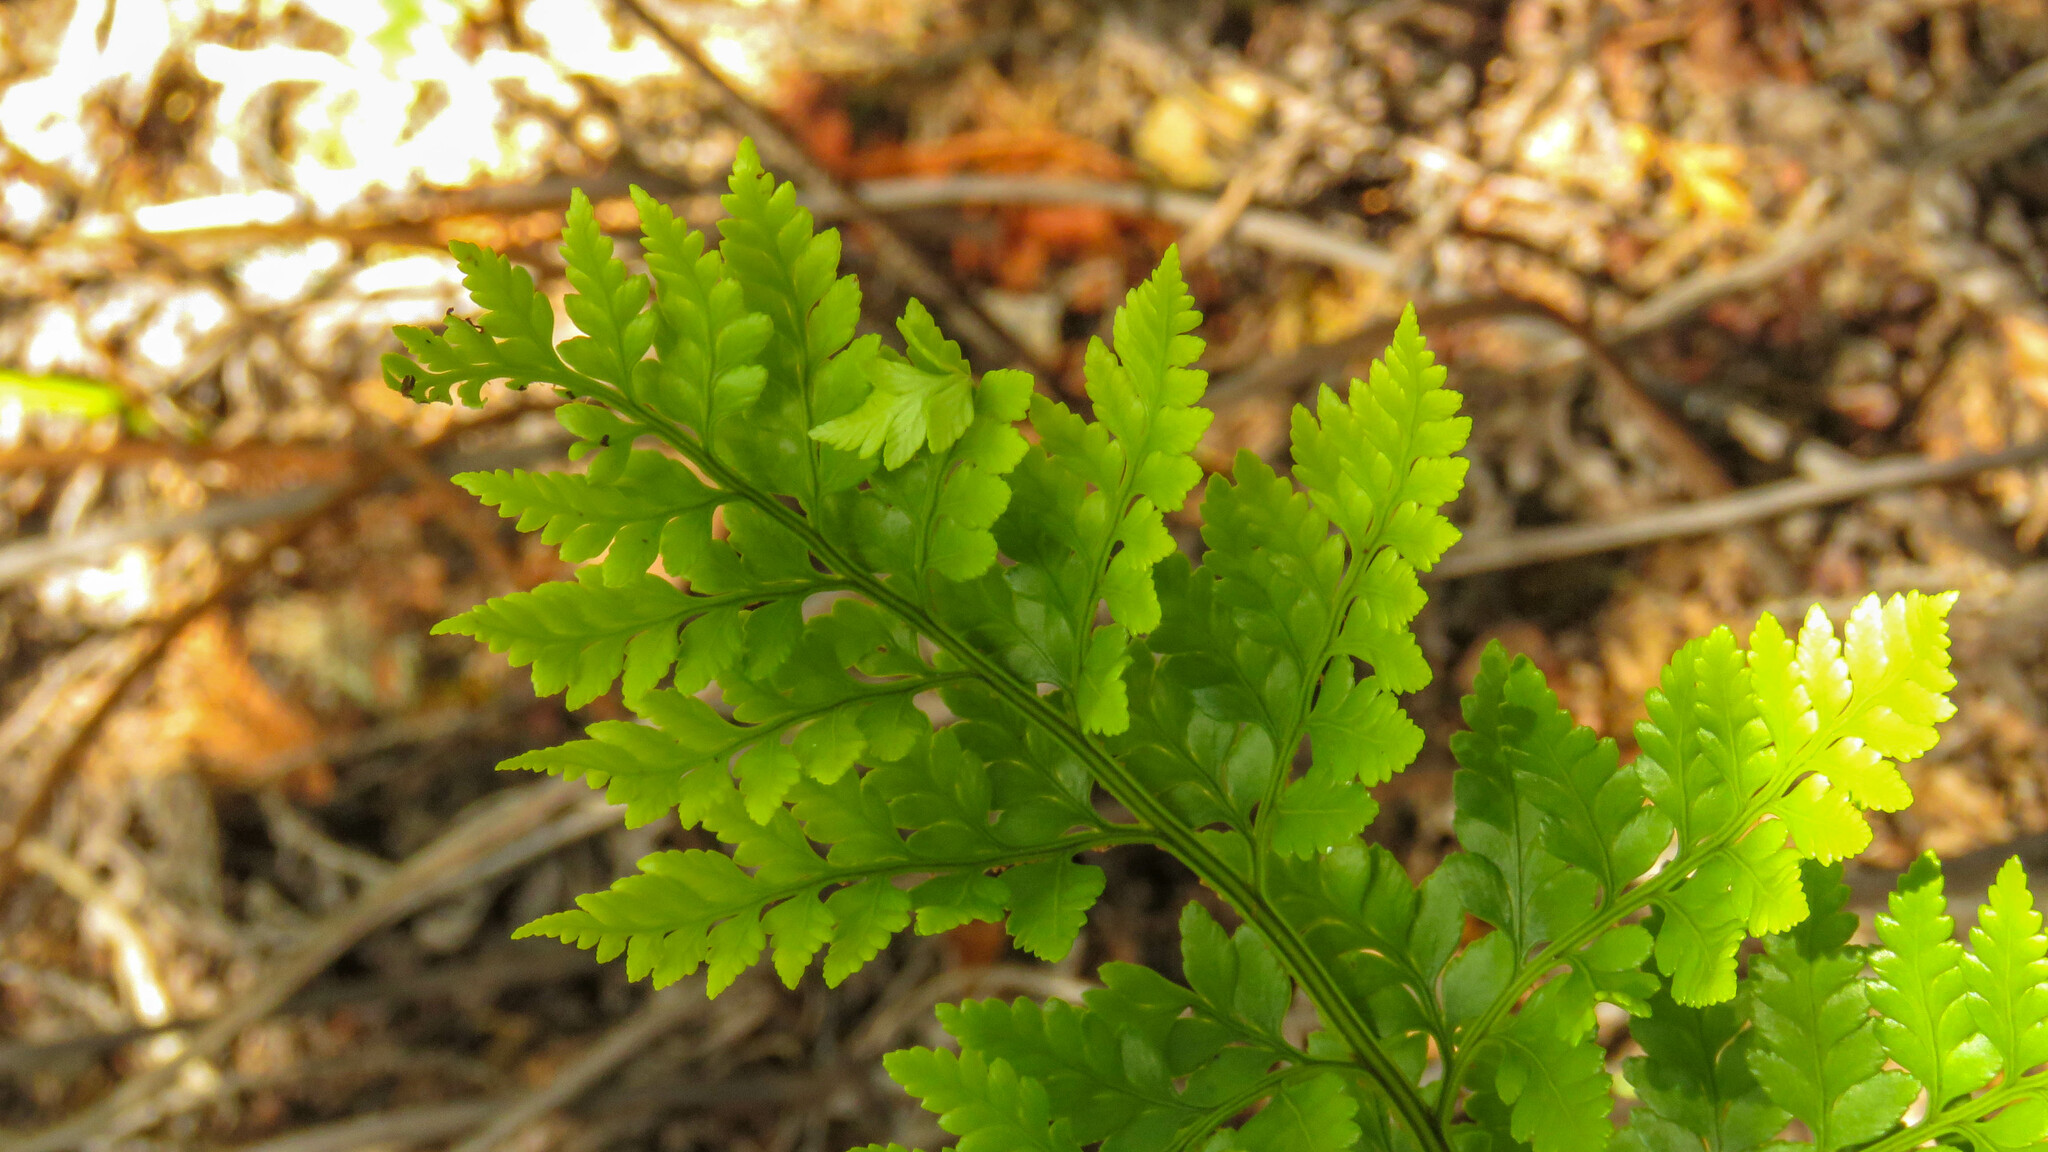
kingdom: Plantae
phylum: Tracheophyta
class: Polypodiopsida
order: Polypodiales
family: Dryopteridaceae
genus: Rumohra
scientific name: Rumohra adiantiformis
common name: Leather fern
